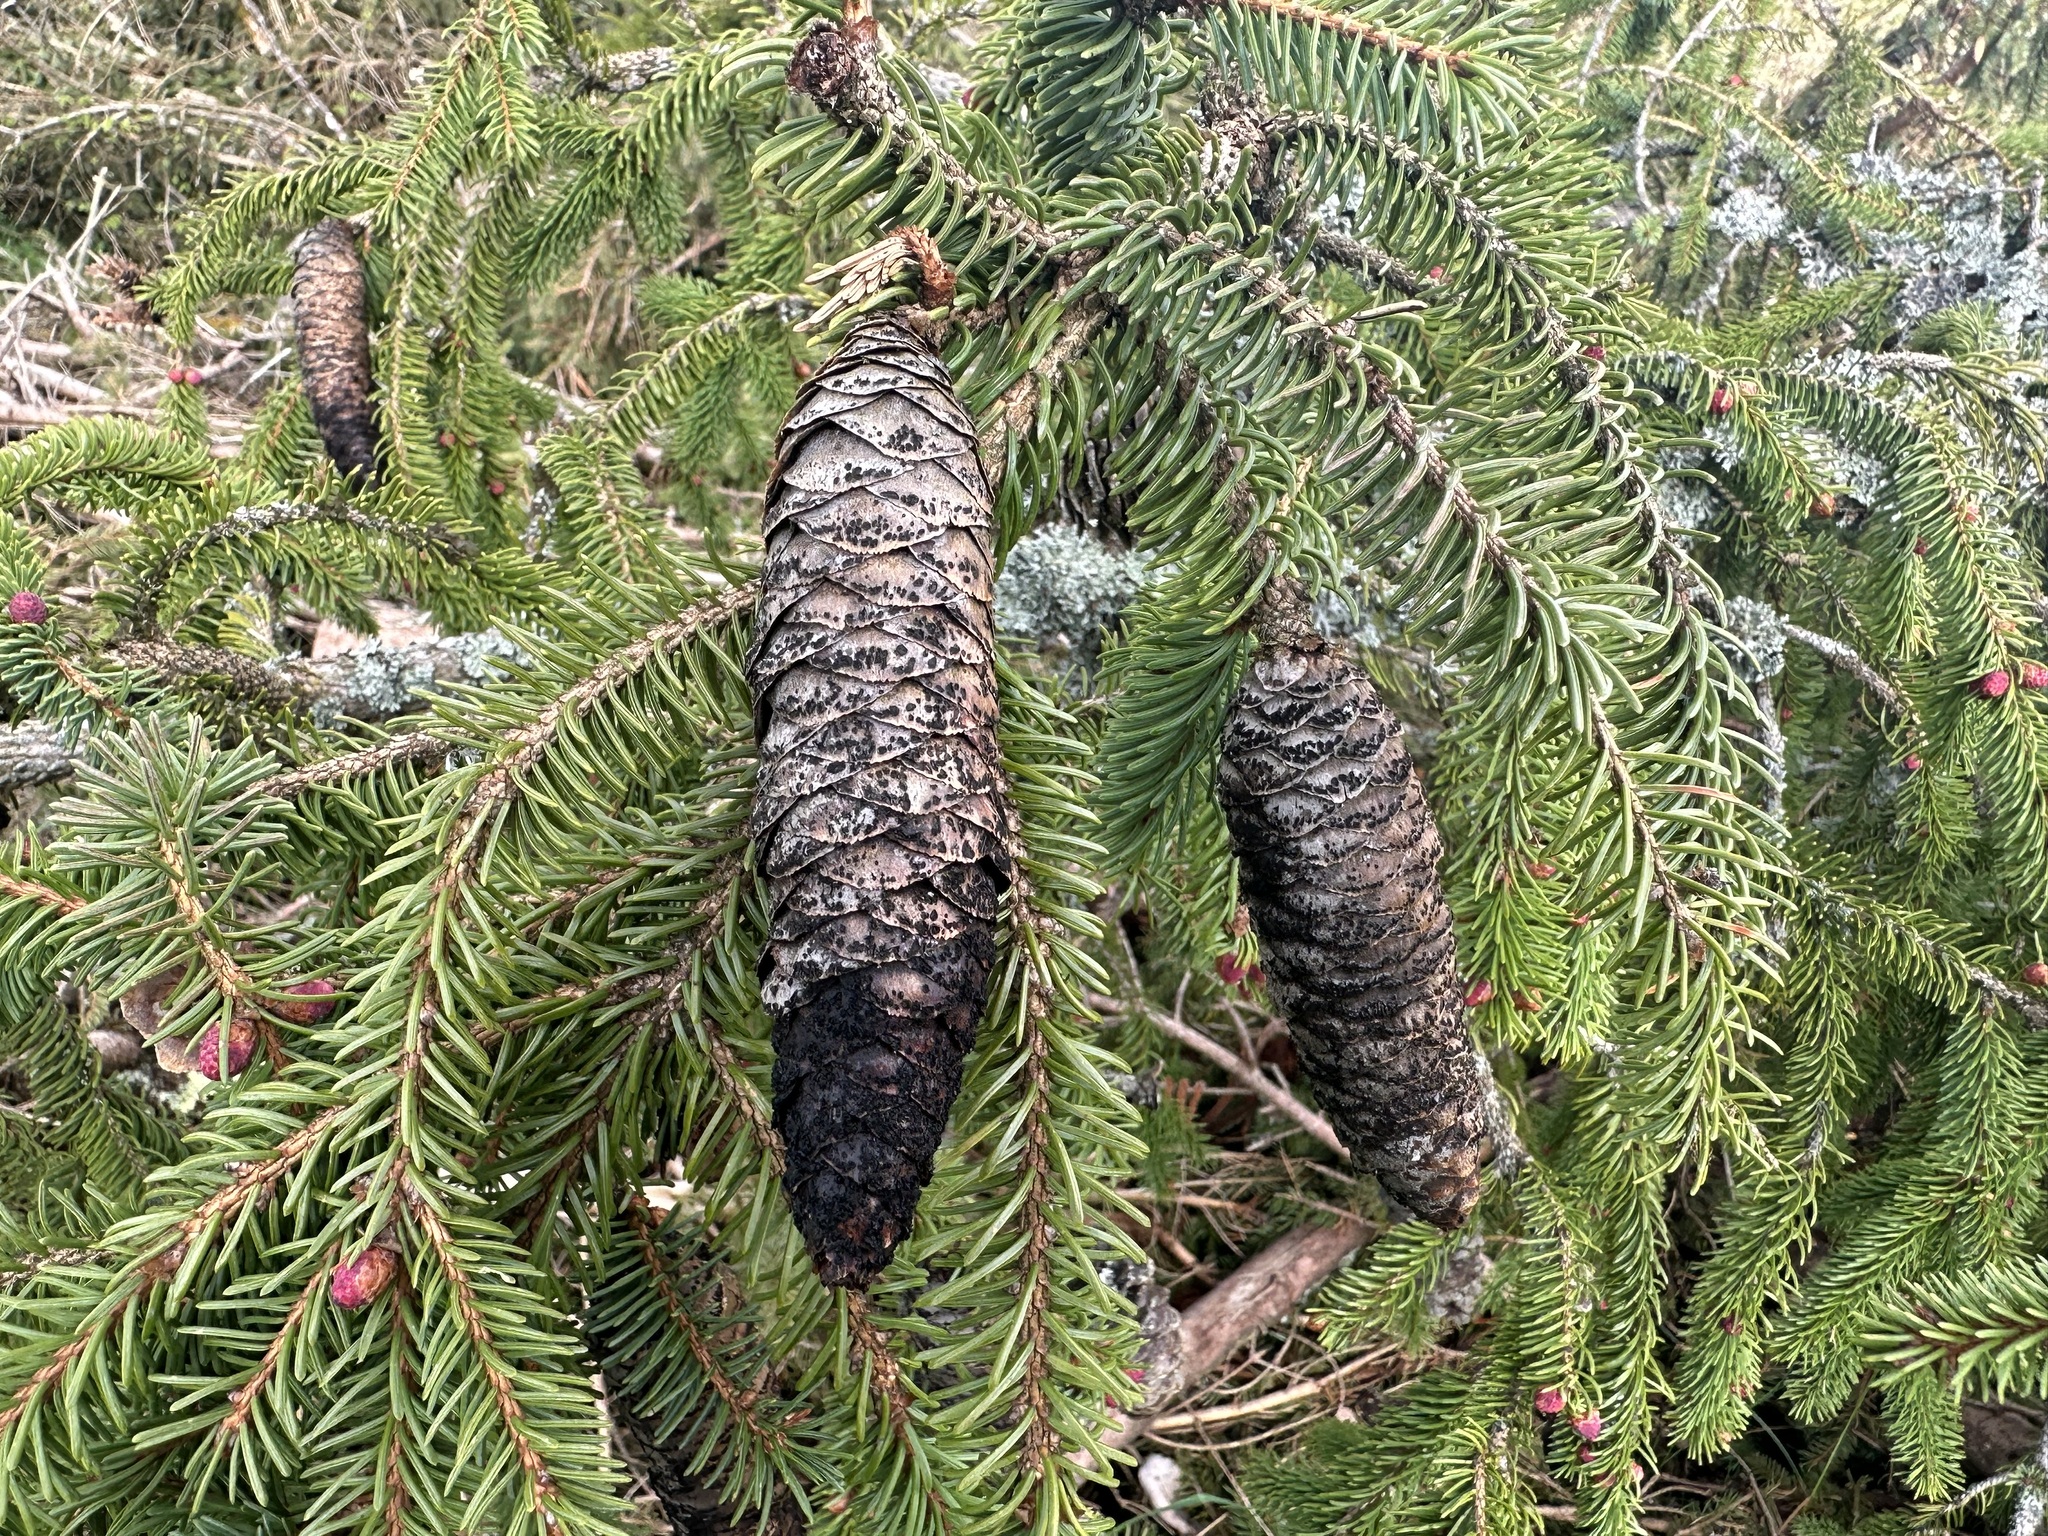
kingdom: Plantae
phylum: Tracheophyta
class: Pinopsida
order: Pinales
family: Pinaceae
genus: Picea
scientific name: Picea abies
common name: Norway spruce
